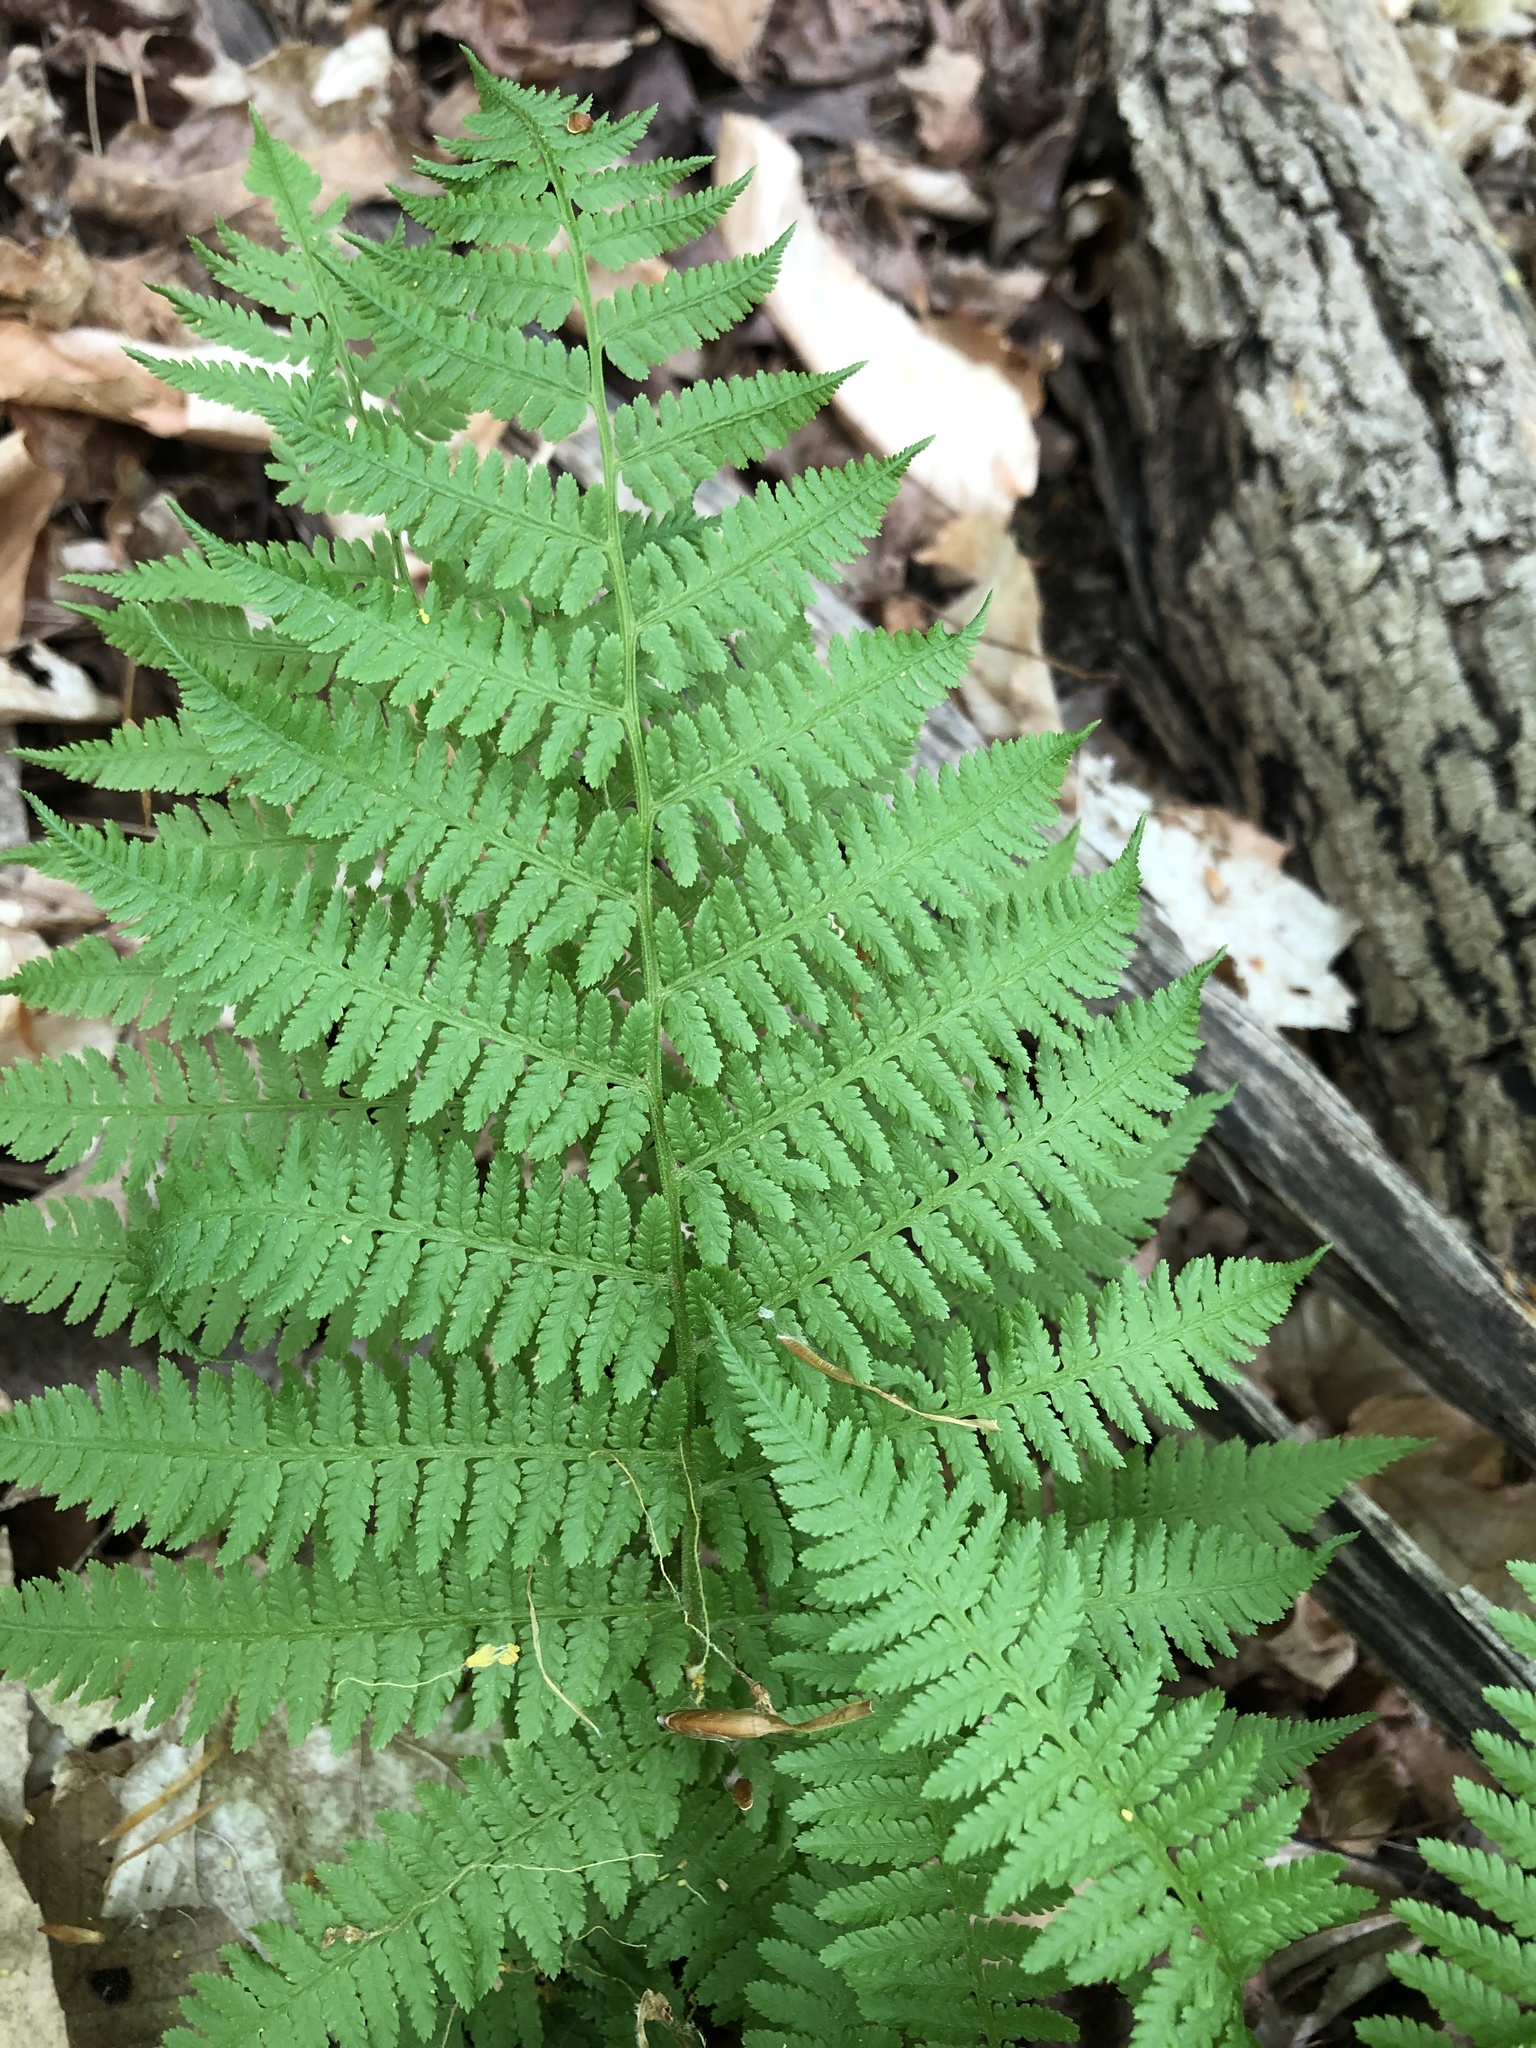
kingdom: Plantae
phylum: Tracheophyta
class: Polypodiopsida
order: Polypodiales
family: Athyriaceae
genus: Athyrium
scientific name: Athyrium angustum
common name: Northern lady fern
